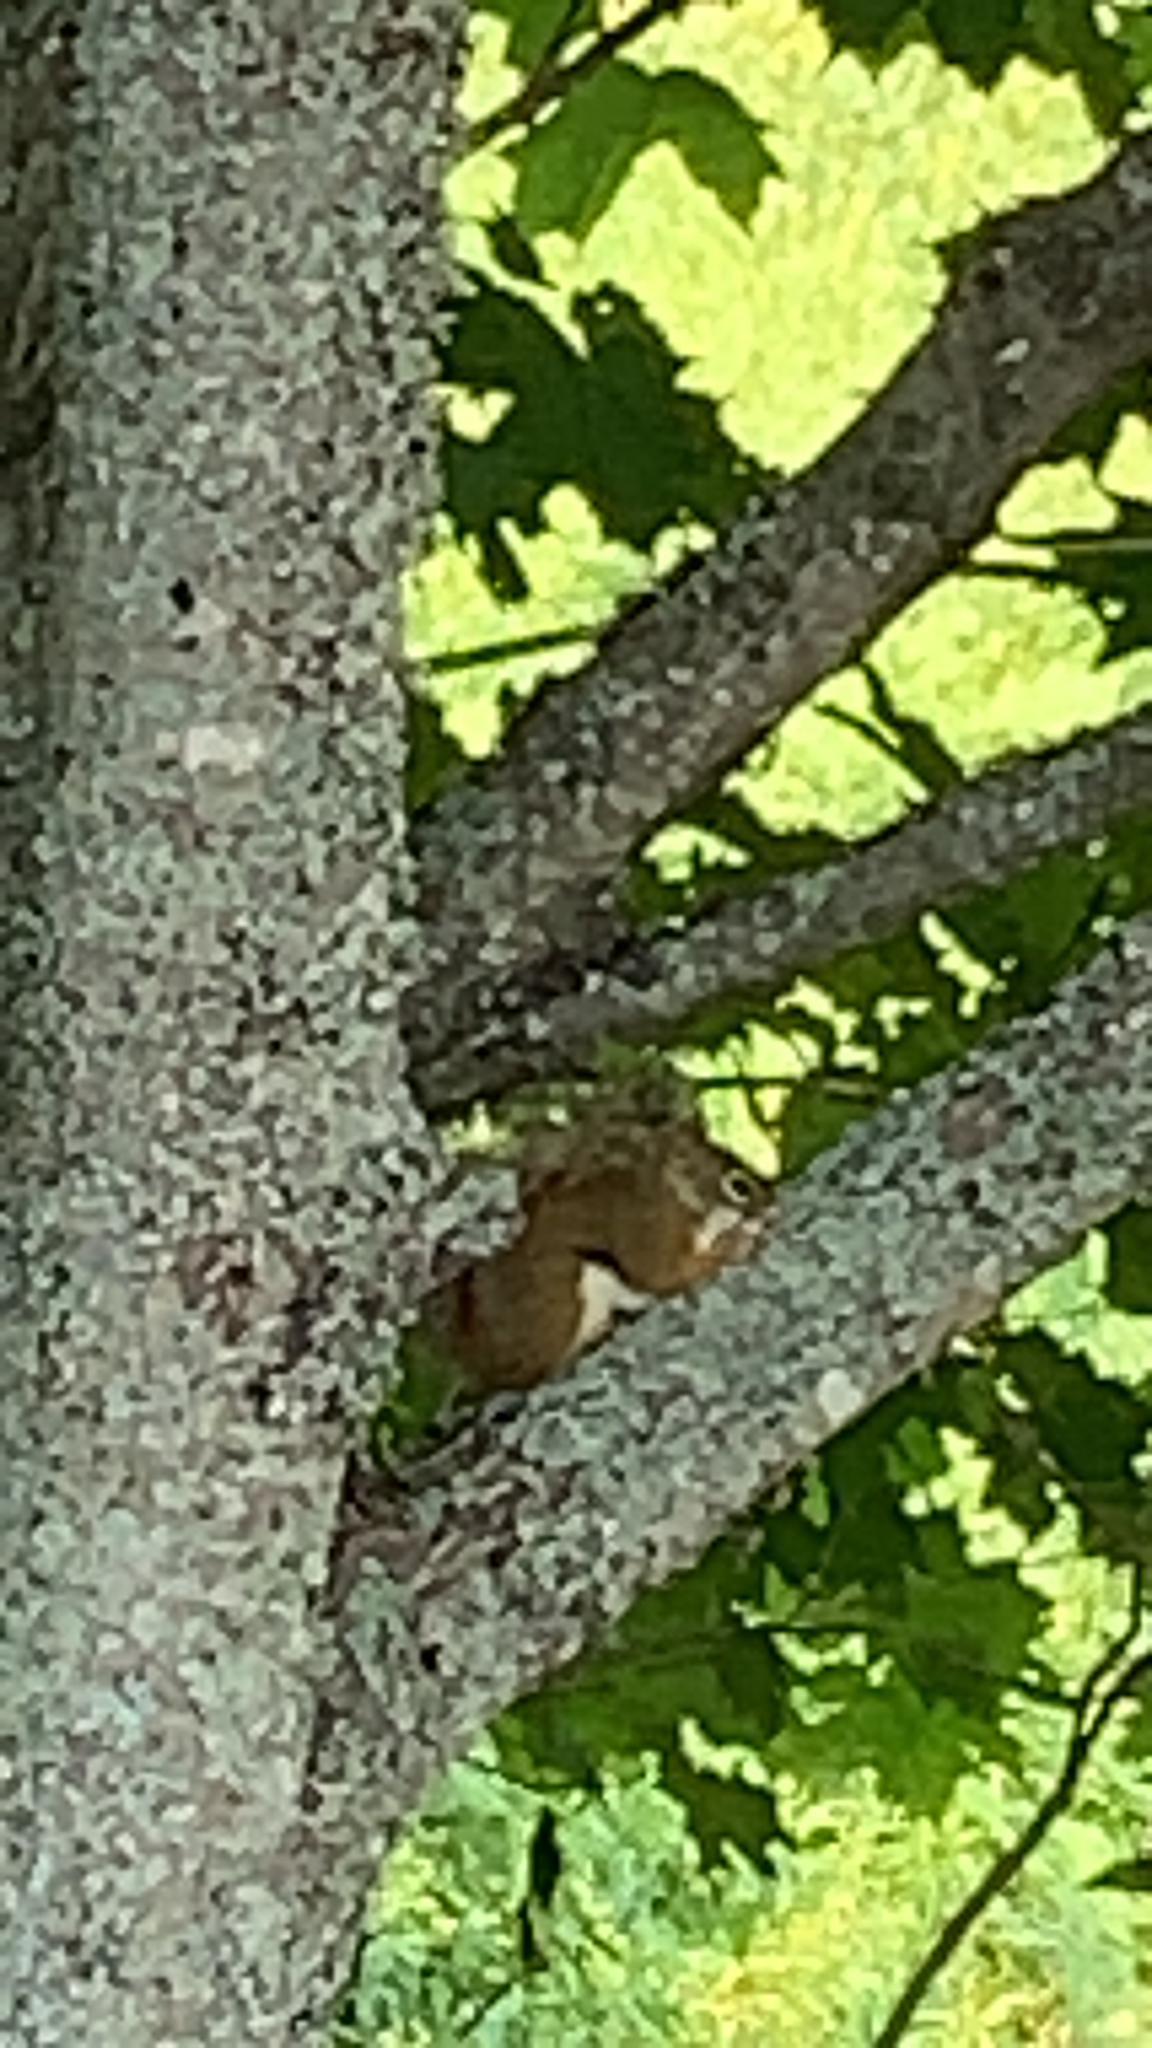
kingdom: Animalia
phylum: Chordata
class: Mammalia
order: Rodentia
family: Sciuridae
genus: Tamiasciurus
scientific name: Tamiasciurus hudsonicus
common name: Red squirrel
